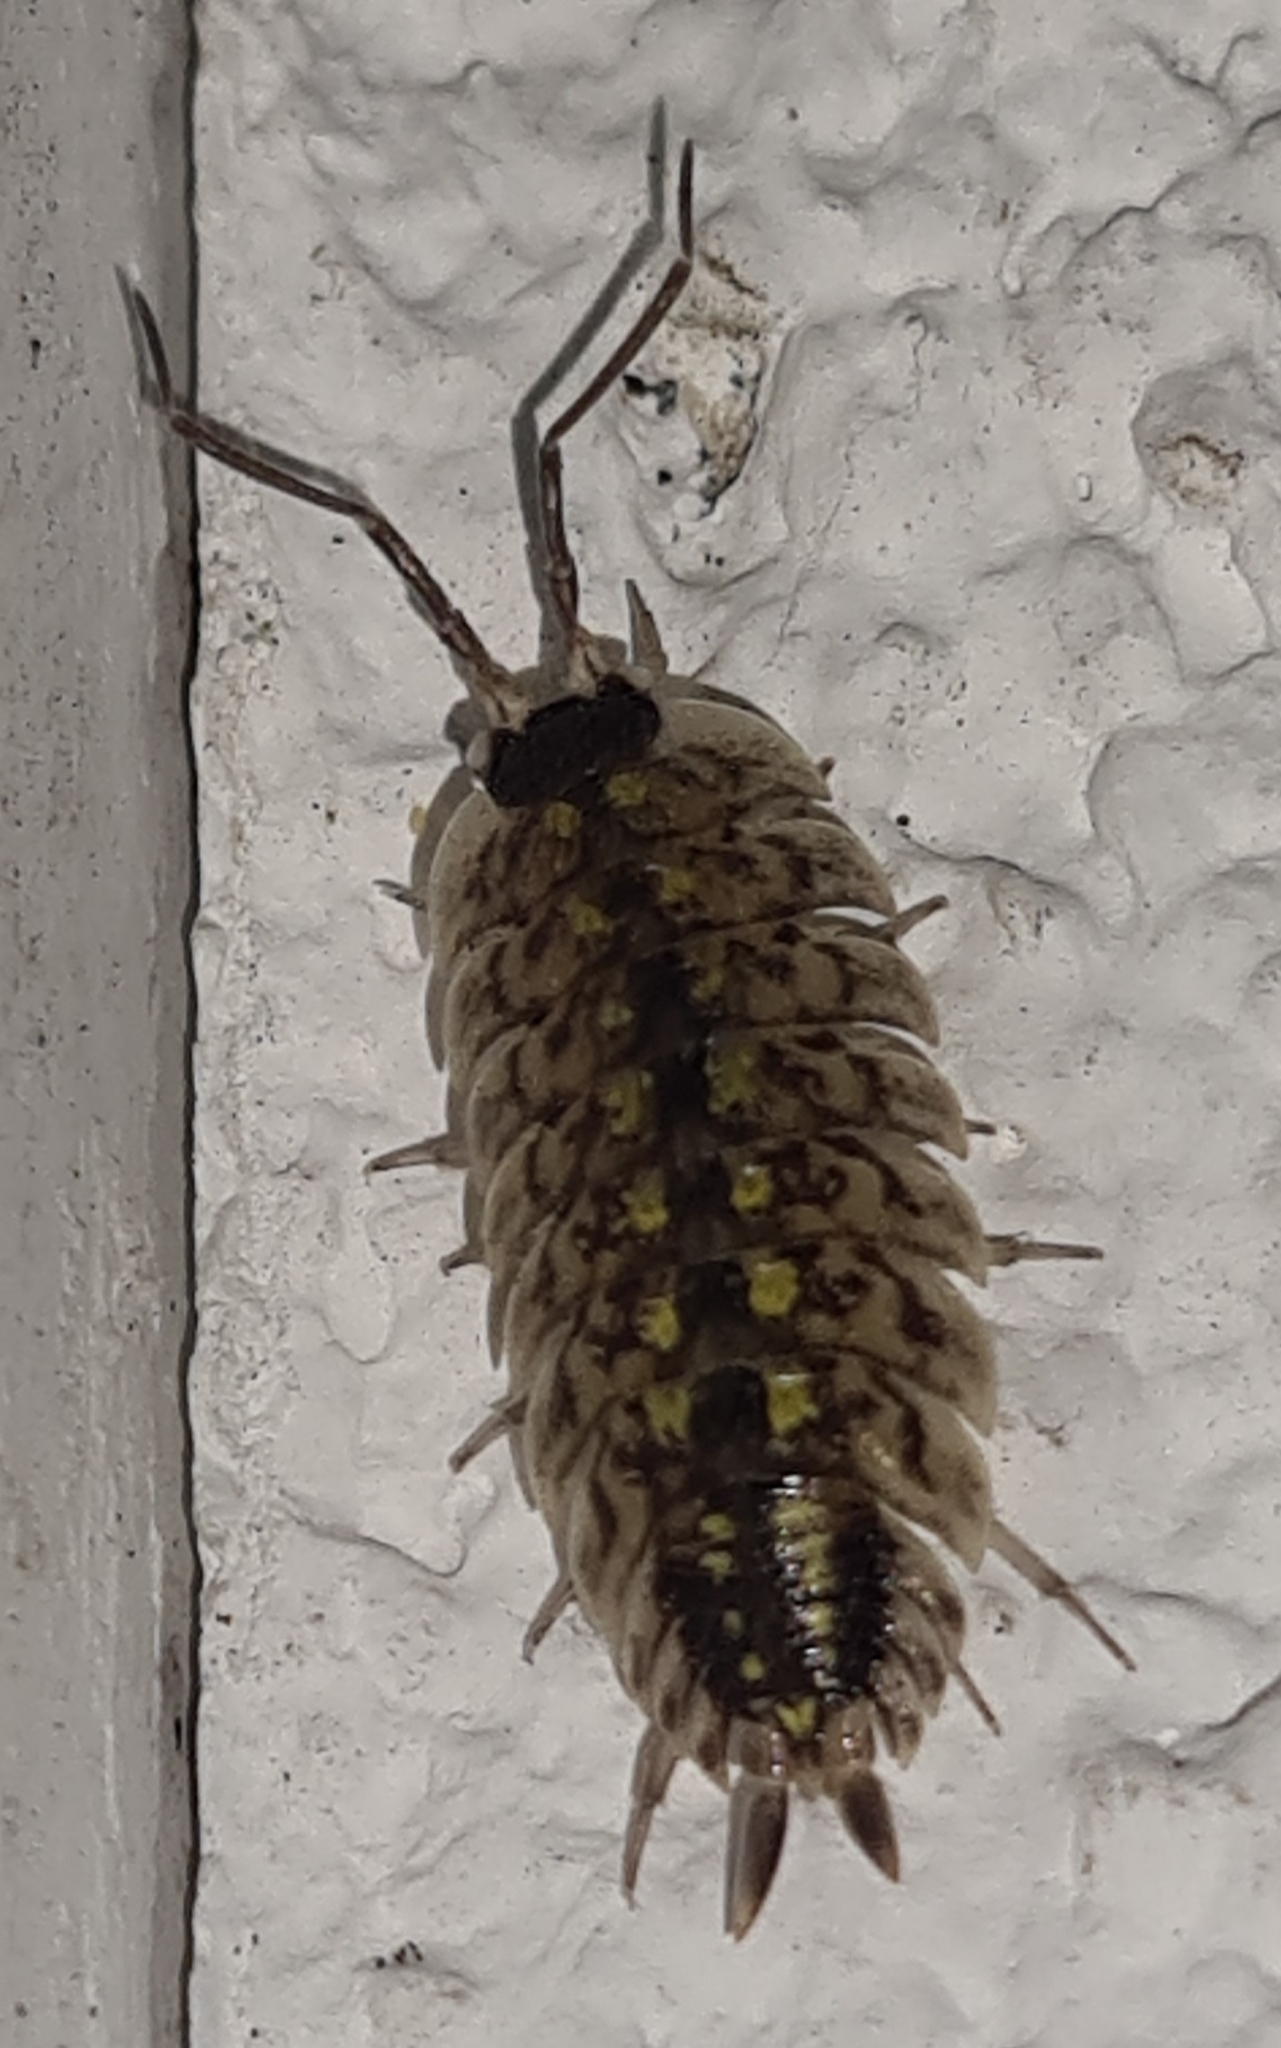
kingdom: Animalia
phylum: Arthropoda
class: Malacostraca
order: Isopoda
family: Porcellionidae
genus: Porcellio
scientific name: Porcellio spinicornis
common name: Painted woodlouse
